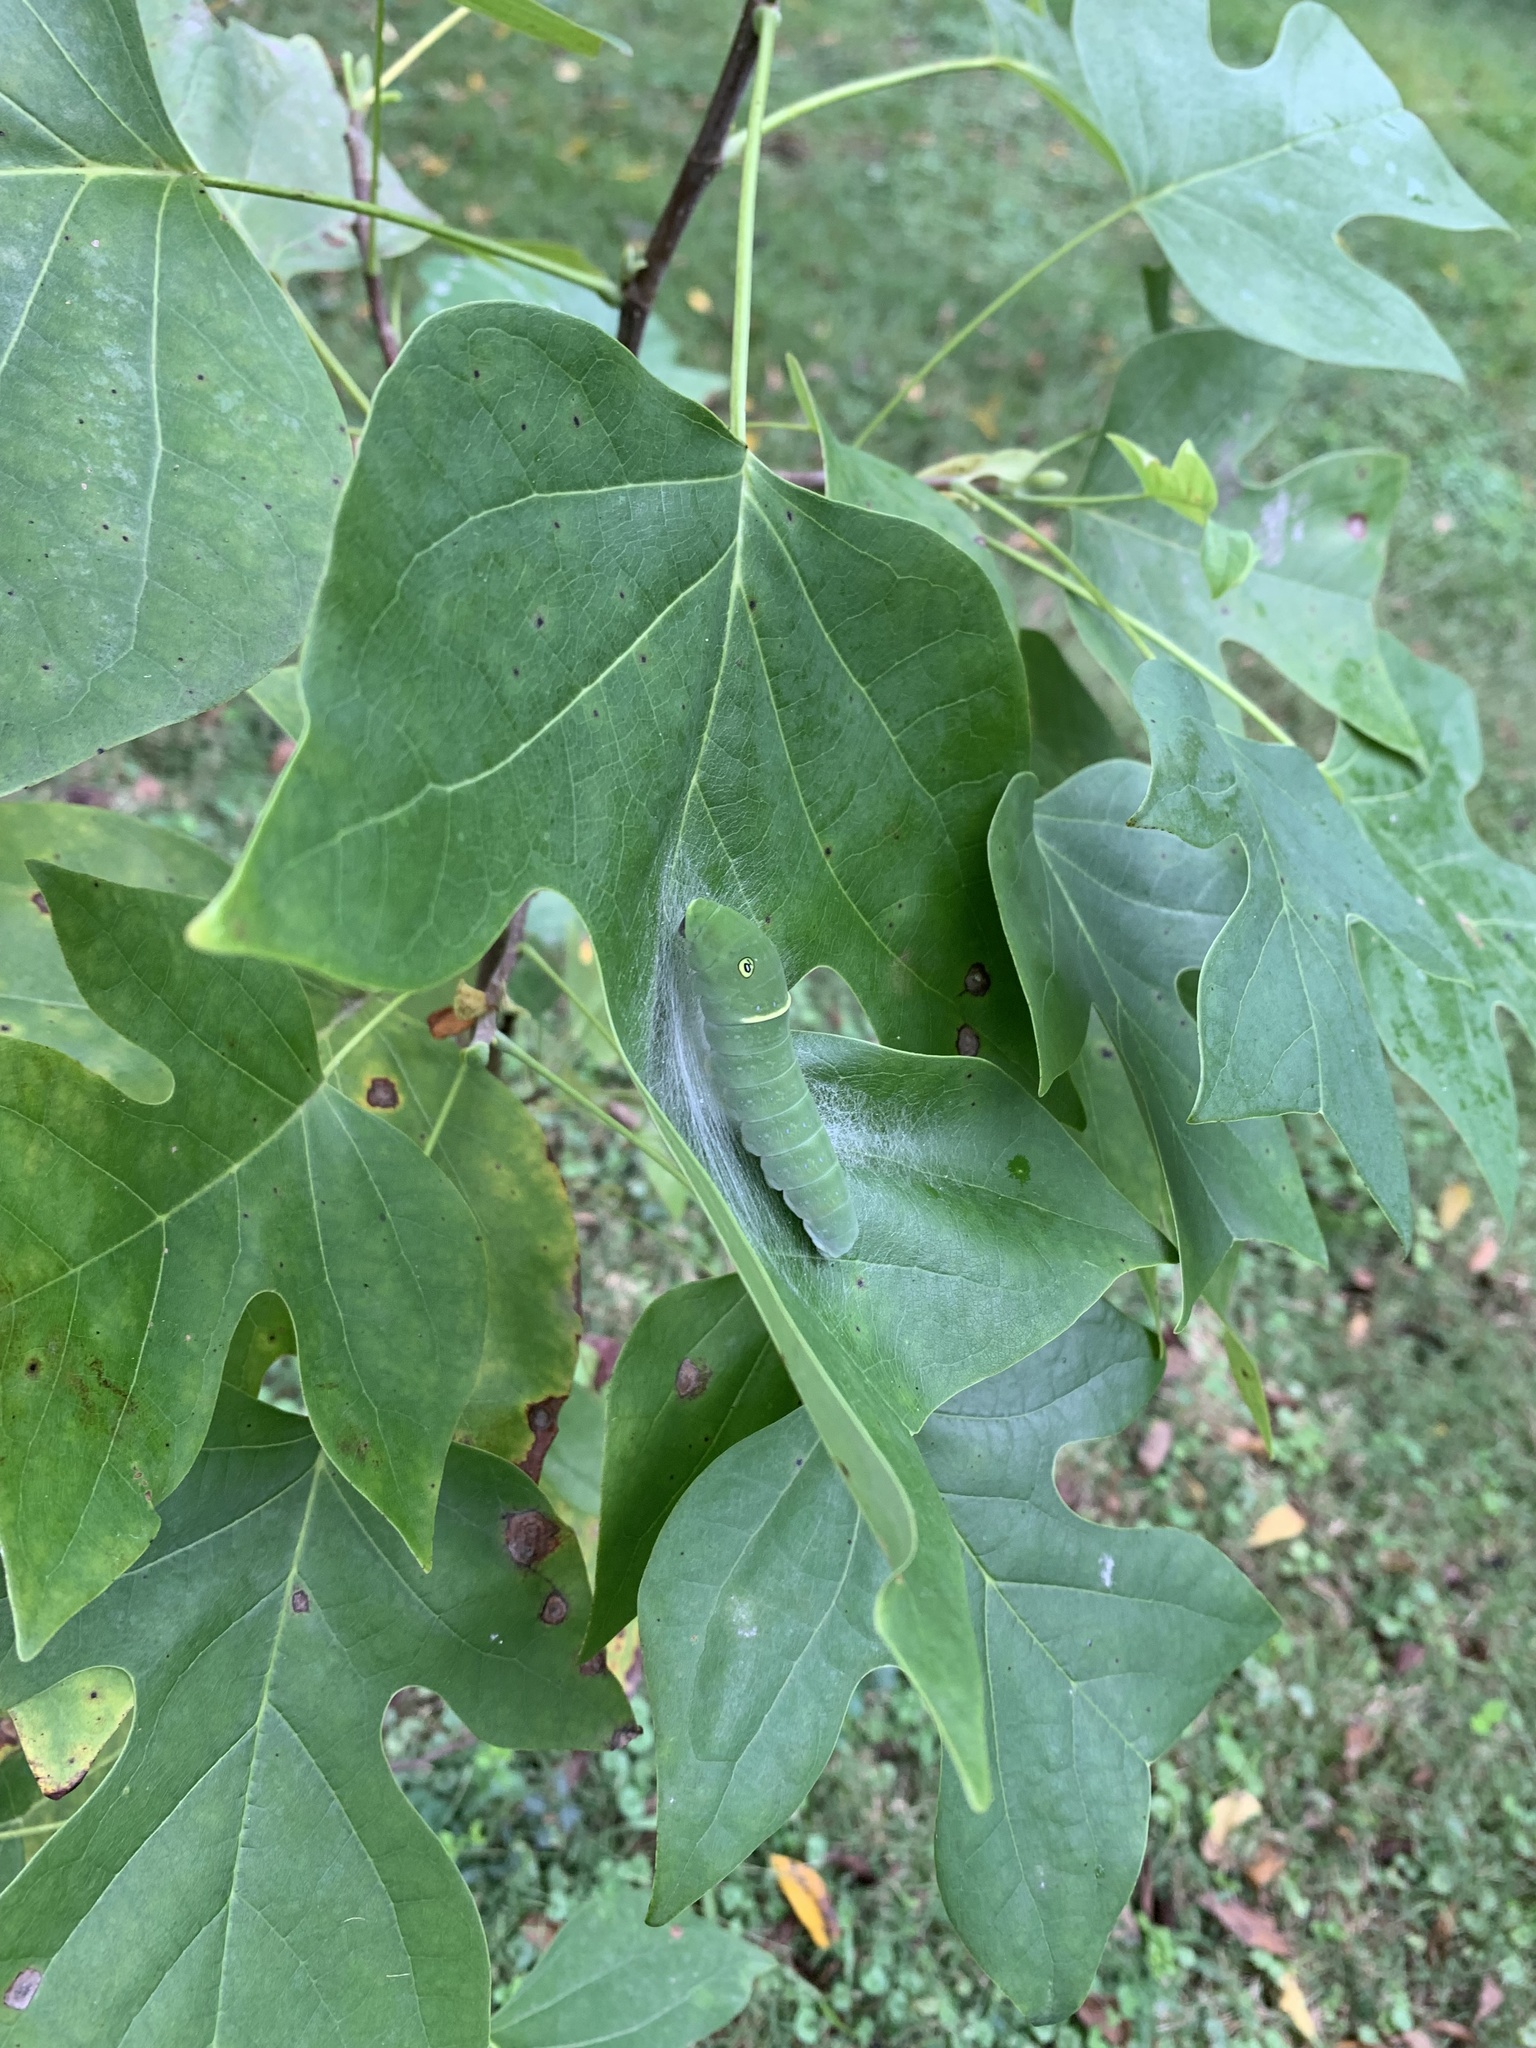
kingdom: Animalia
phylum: Arthropoda
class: Insecta
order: Lepidoptera
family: Papilionidae
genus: Papilio
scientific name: Papilio glaucus
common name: Tiger swallowtail
